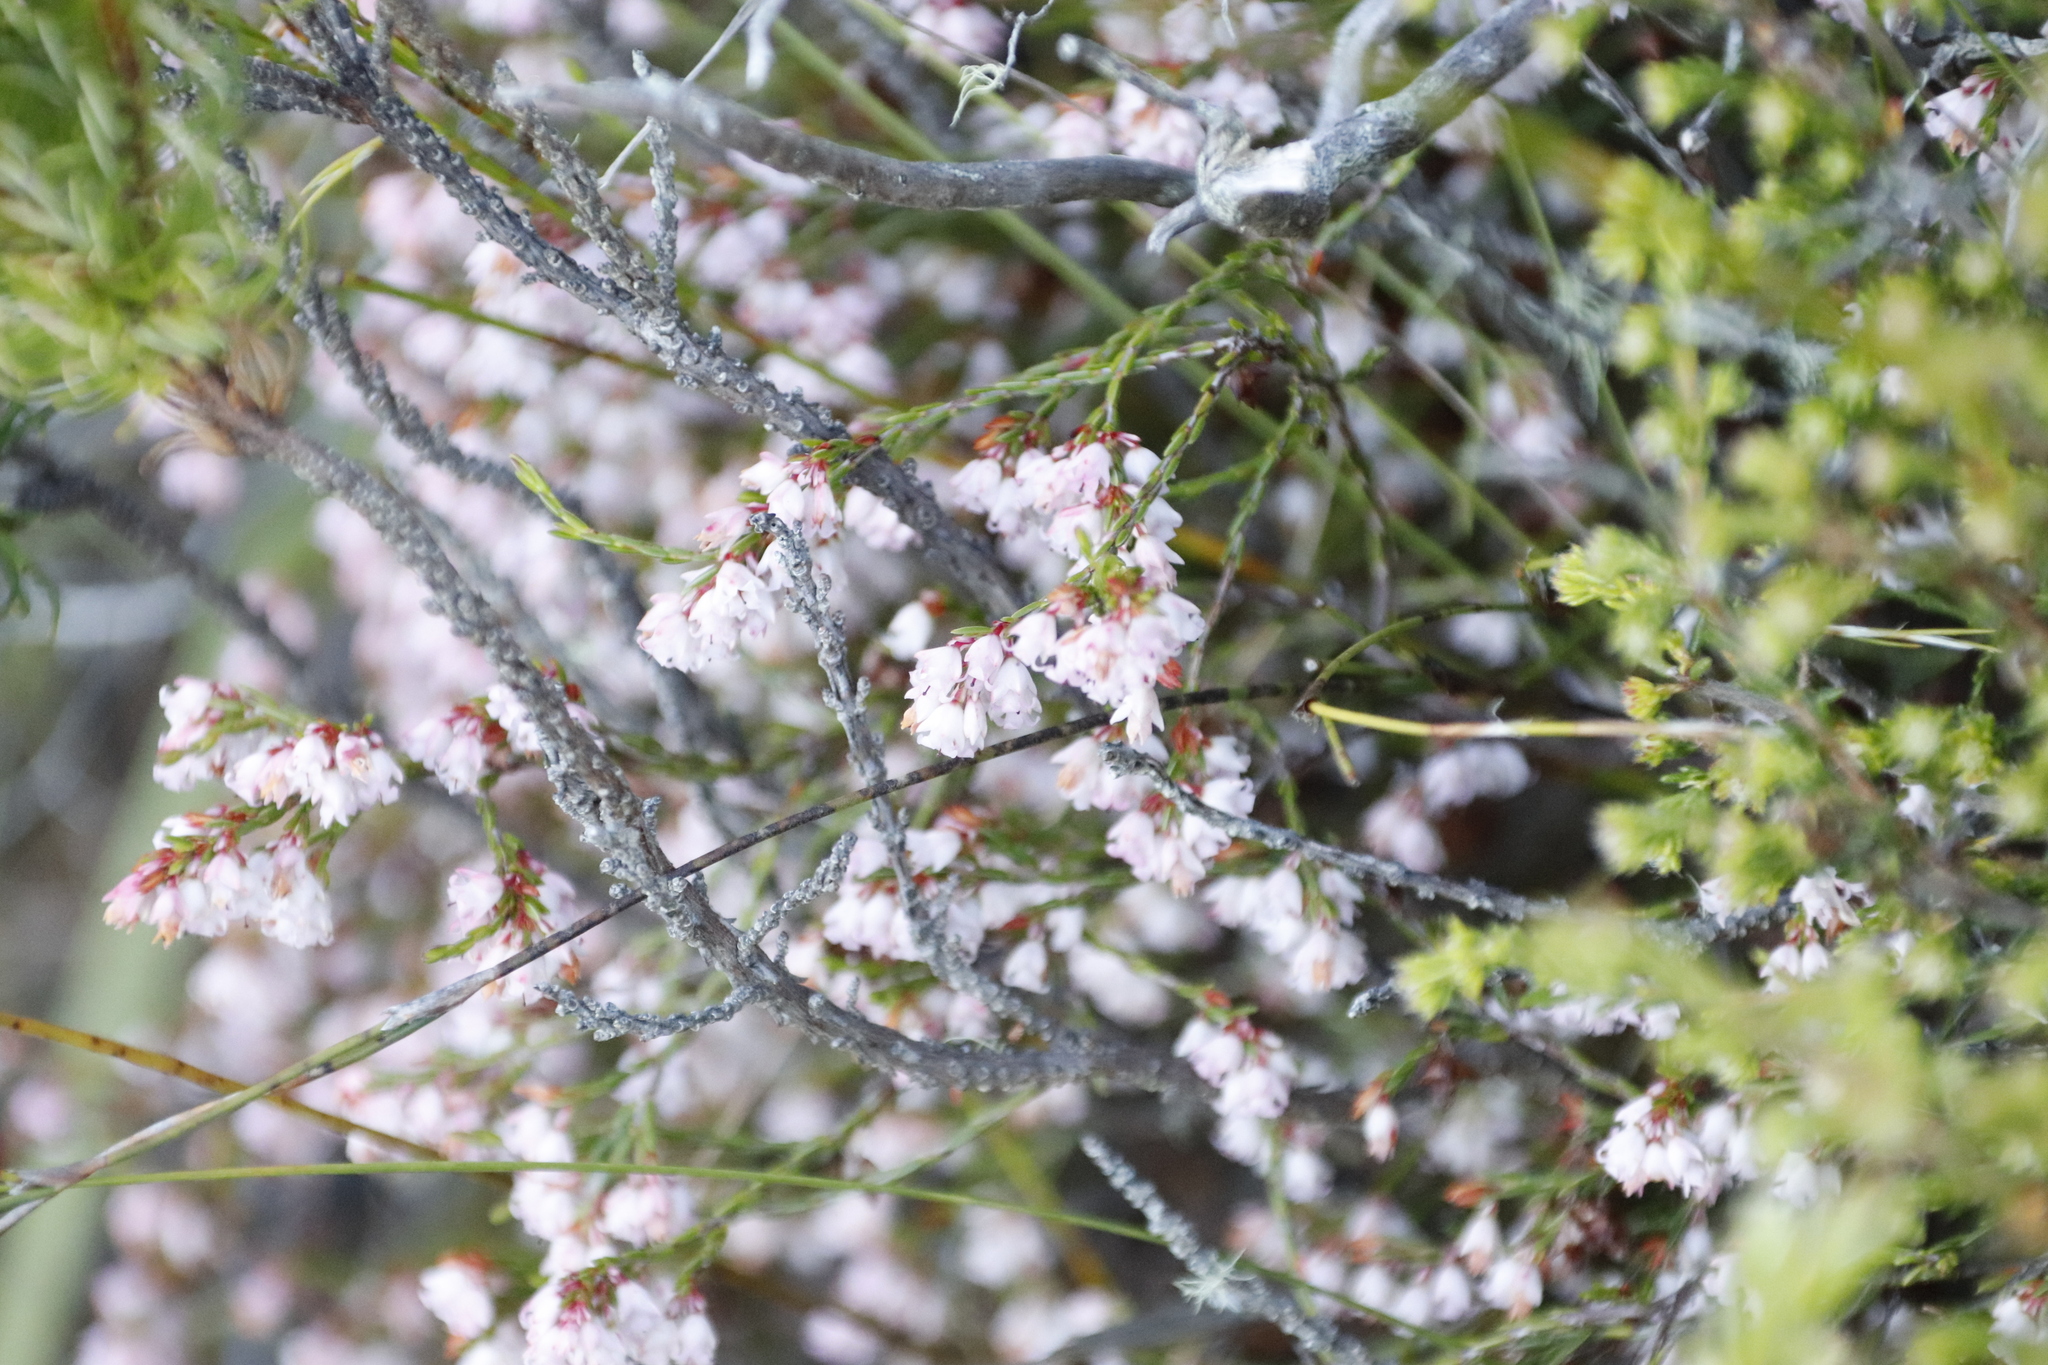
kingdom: Plantae
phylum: Tracheophyta
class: Magnoliopsida
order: Ericales
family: Ericaceae
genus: Erica
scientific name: Erica tenuifolia
